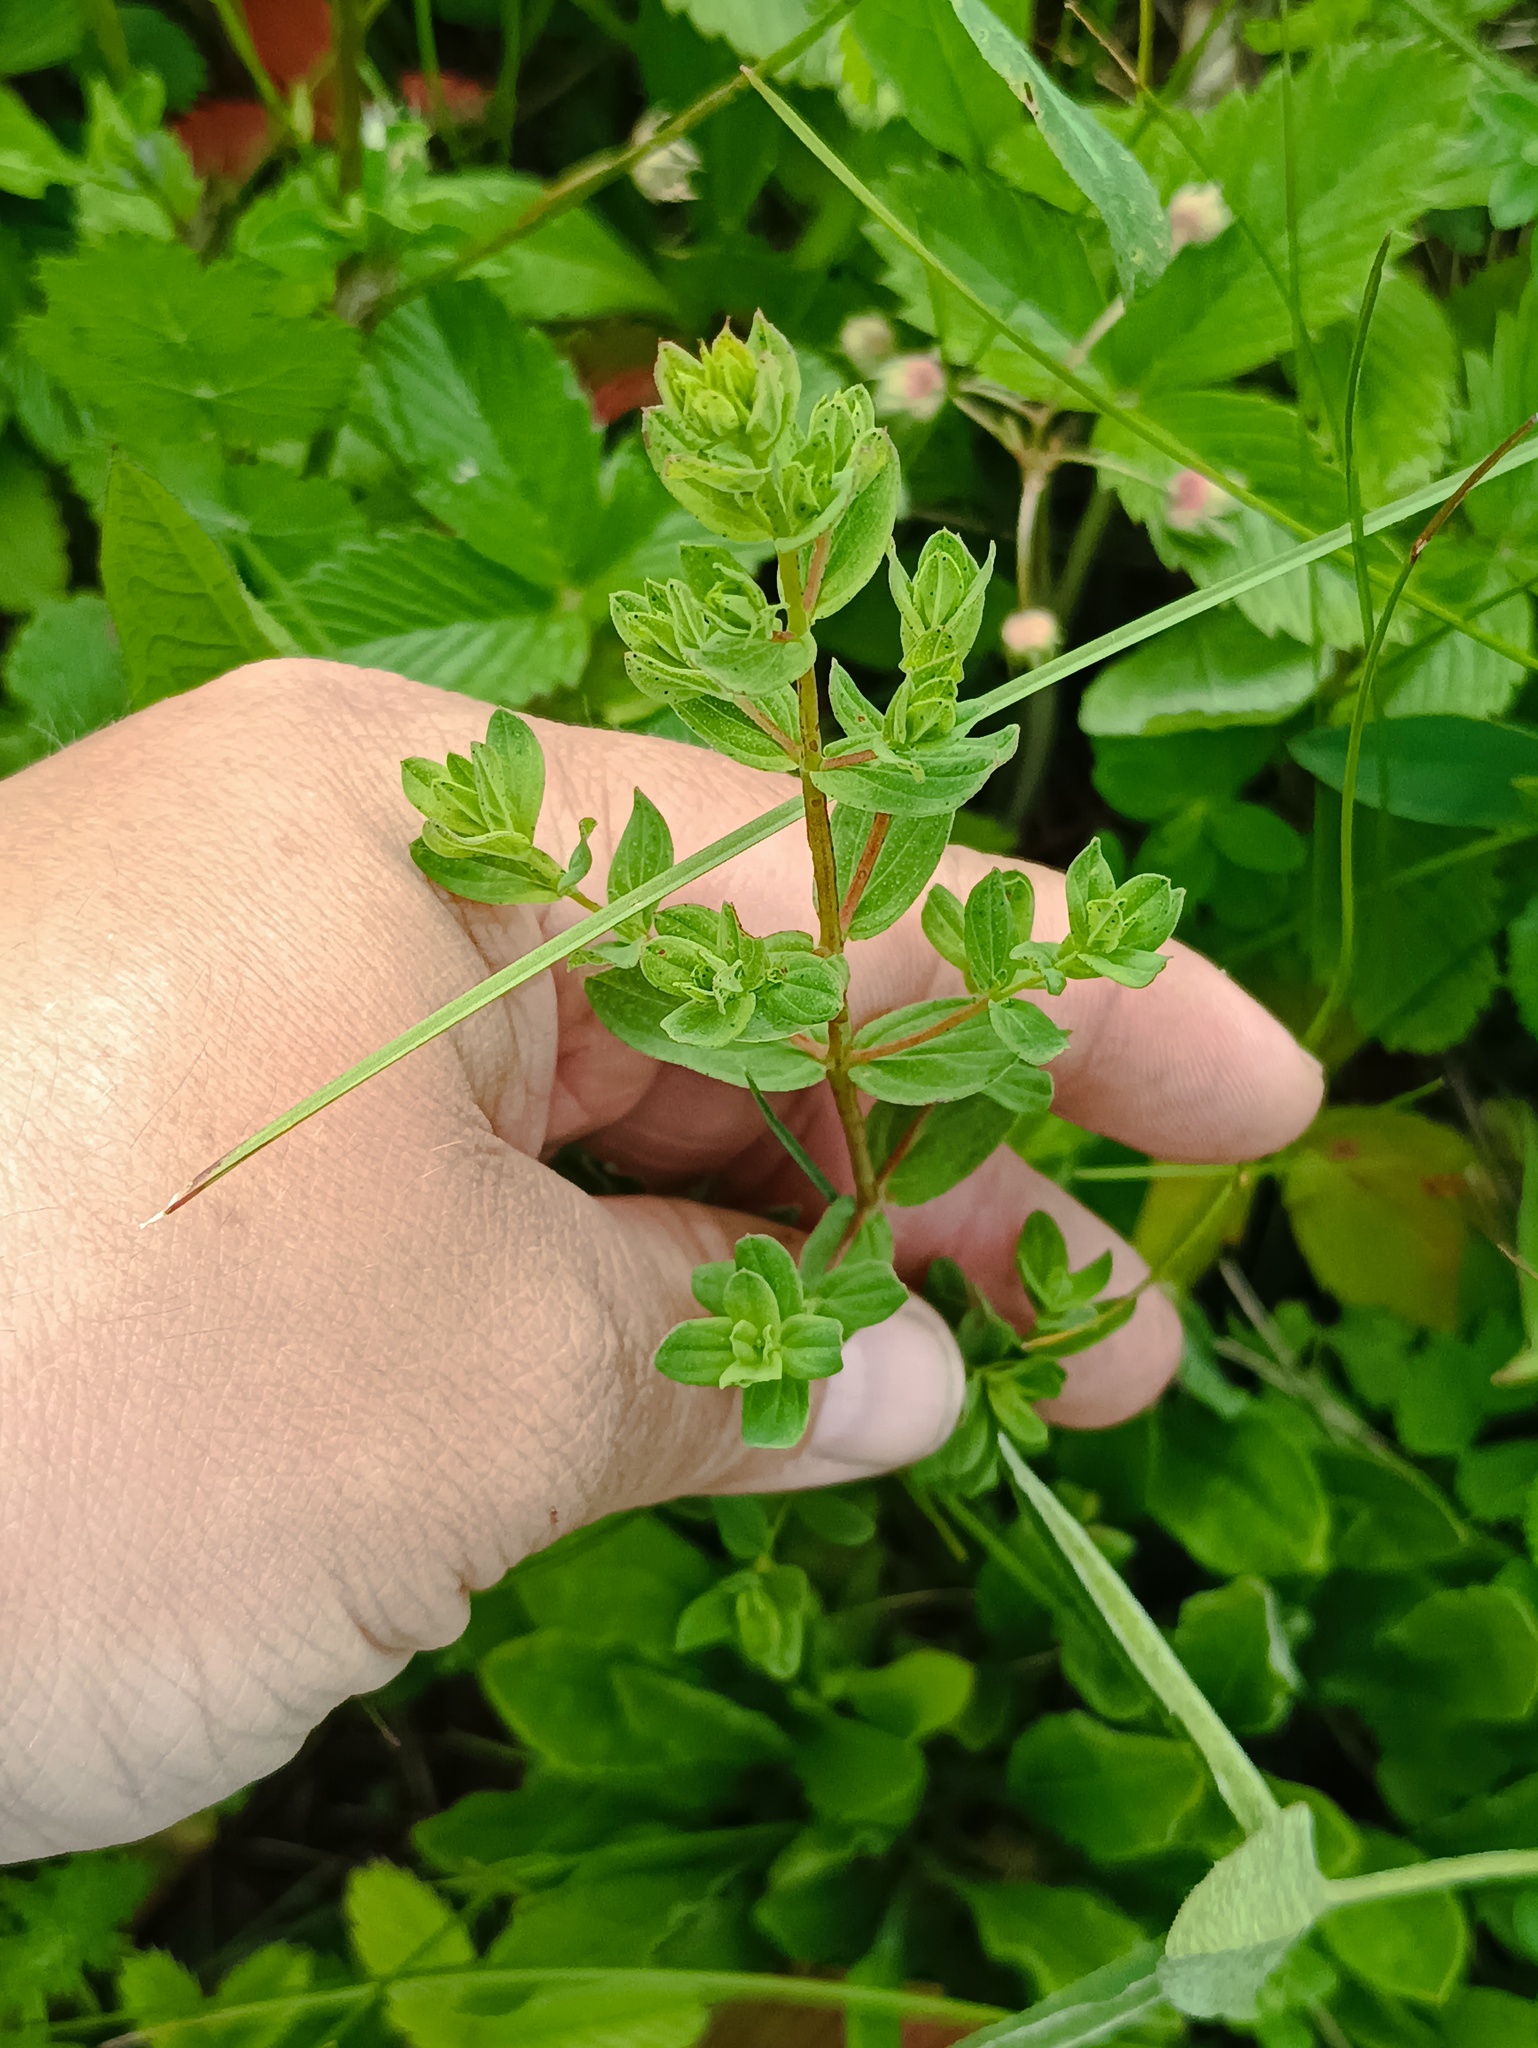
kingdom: Plantae
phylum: Tracheophyta
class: Magnoliopsida
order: Malpighiales
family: Hypericaceae
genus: Hypericum
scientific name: Hypericum perforatum
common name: Common st. johnswort
